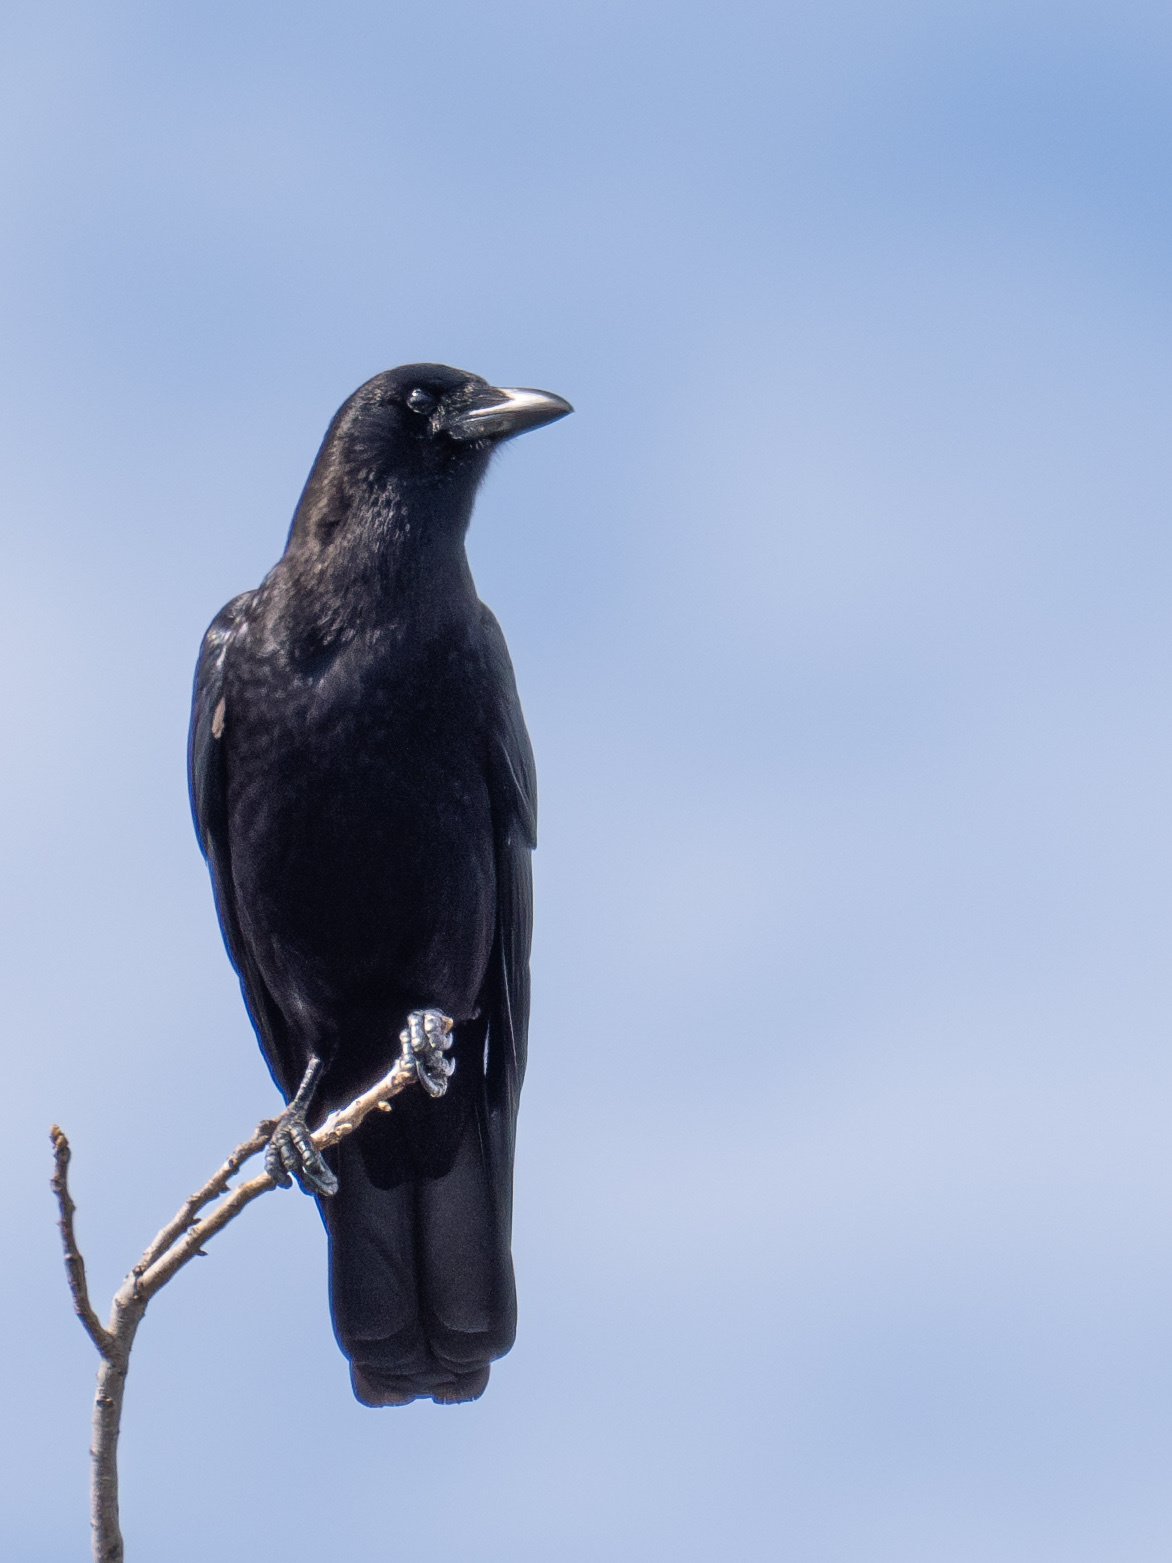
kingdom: Animalia
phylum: Chordata
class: Aves
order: Passeriformes
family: Corvidae
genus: Corvus
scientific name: Corvus brachyrhynchos
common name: American crow
